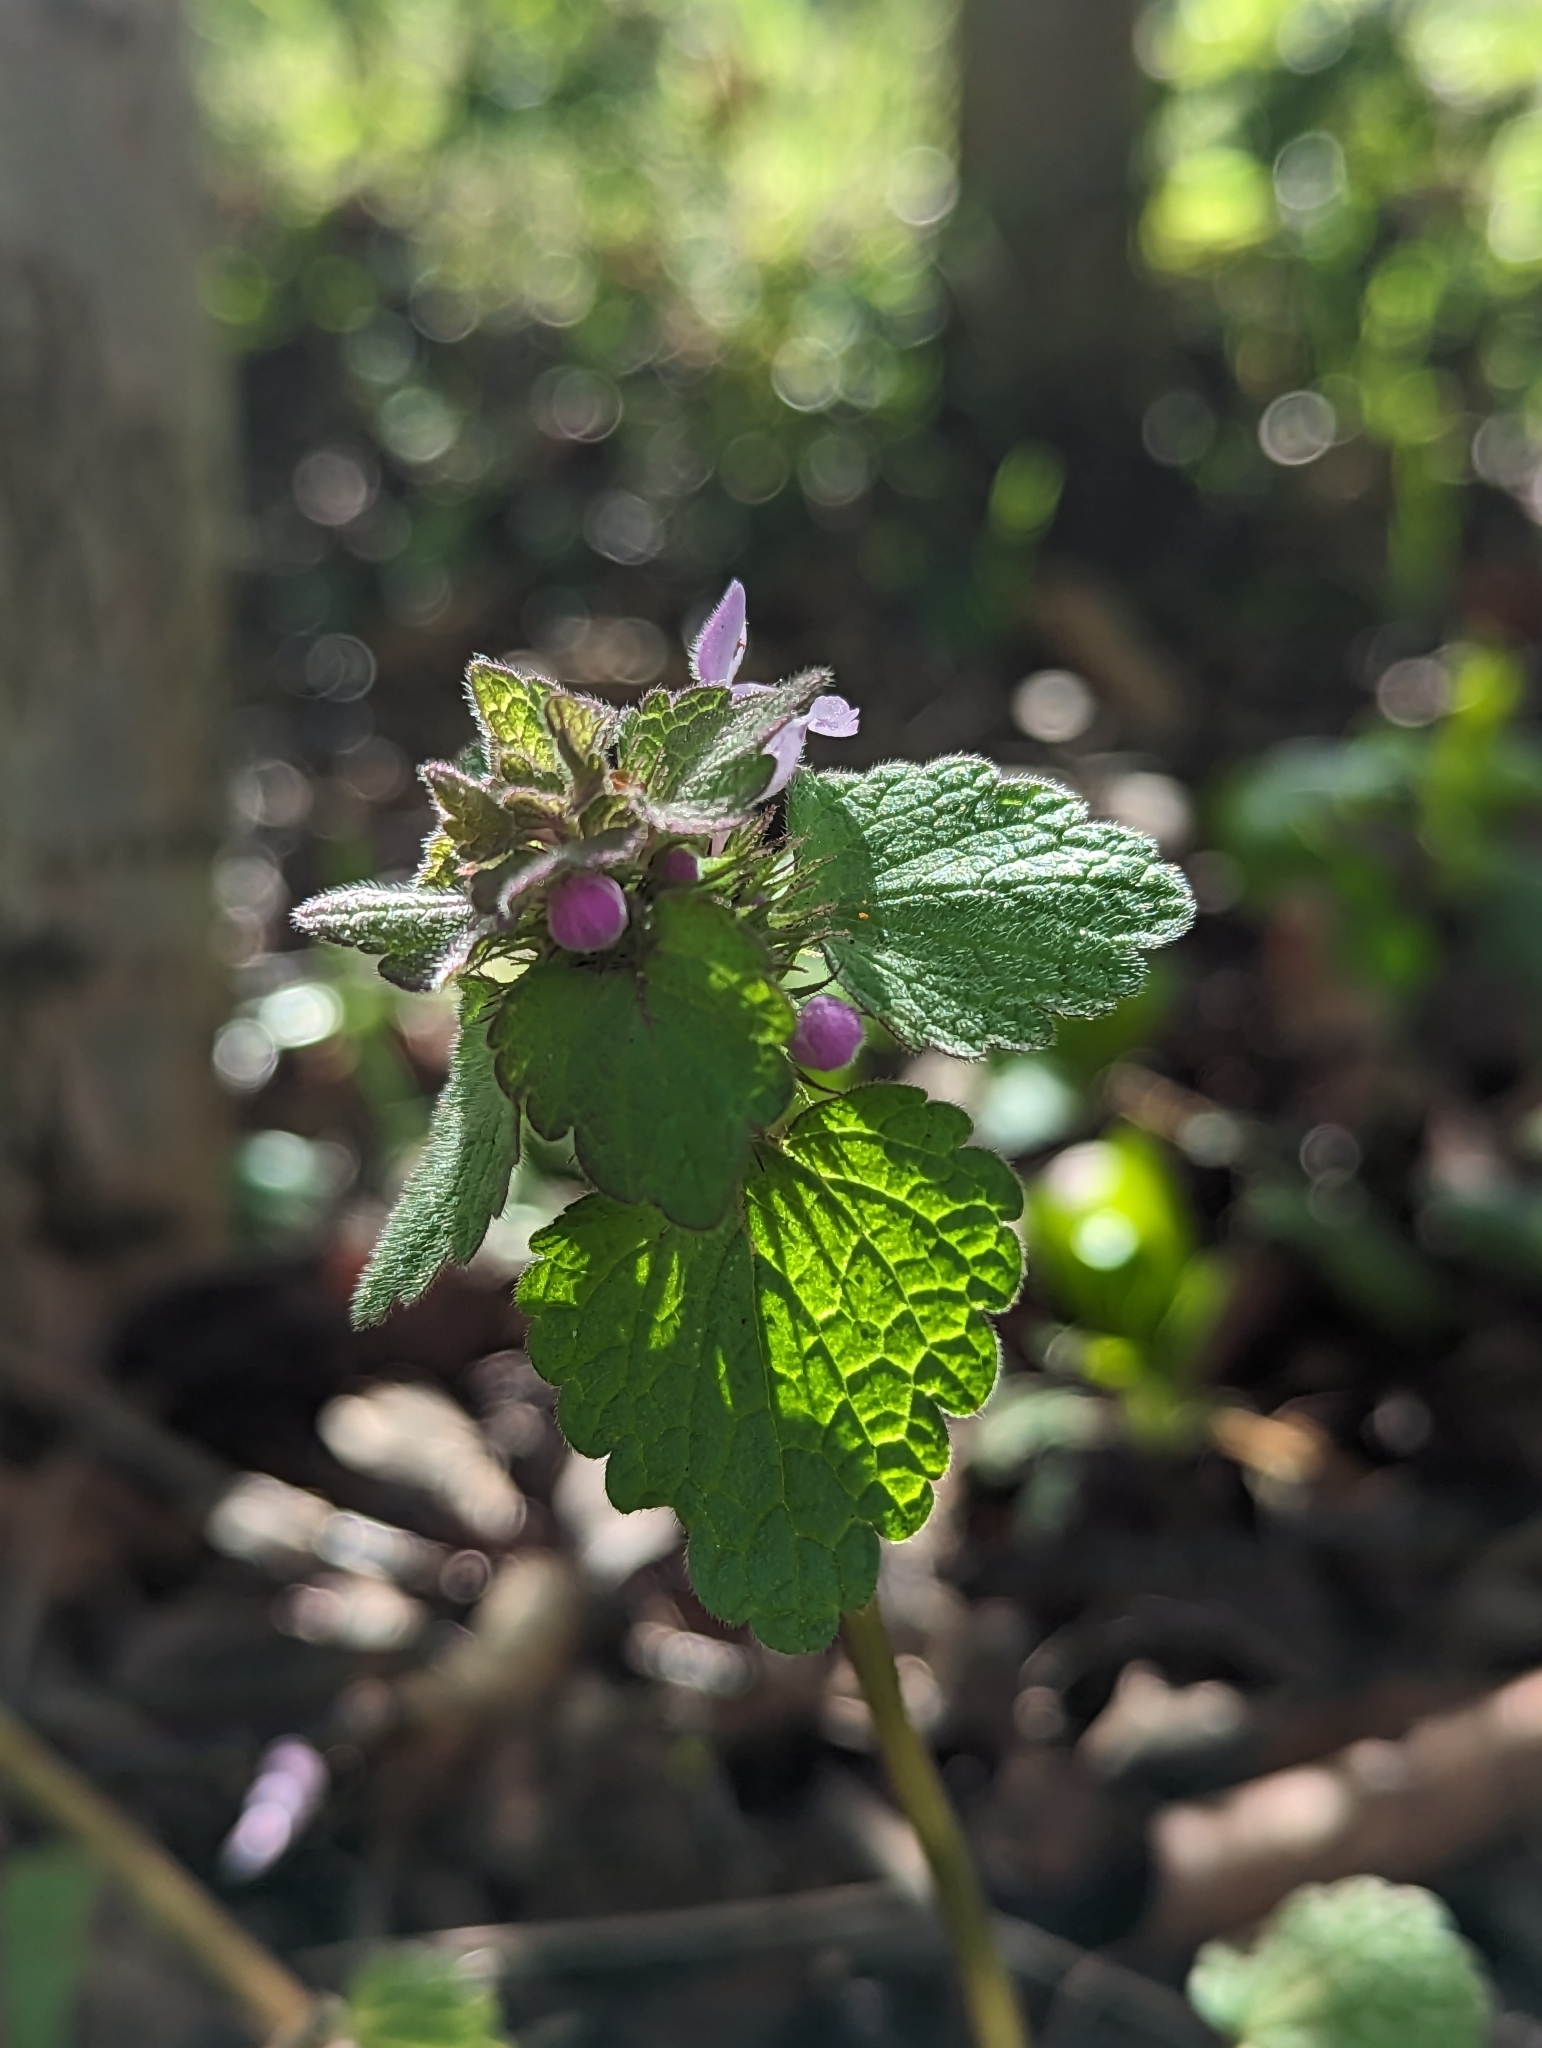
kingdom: Plantae
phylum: Tracheophyta
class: Magnoliopsida
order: Lamiales
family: Lamiaceae
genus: Lamium
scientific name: Lamium purpureum
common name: Red dead-nettle
